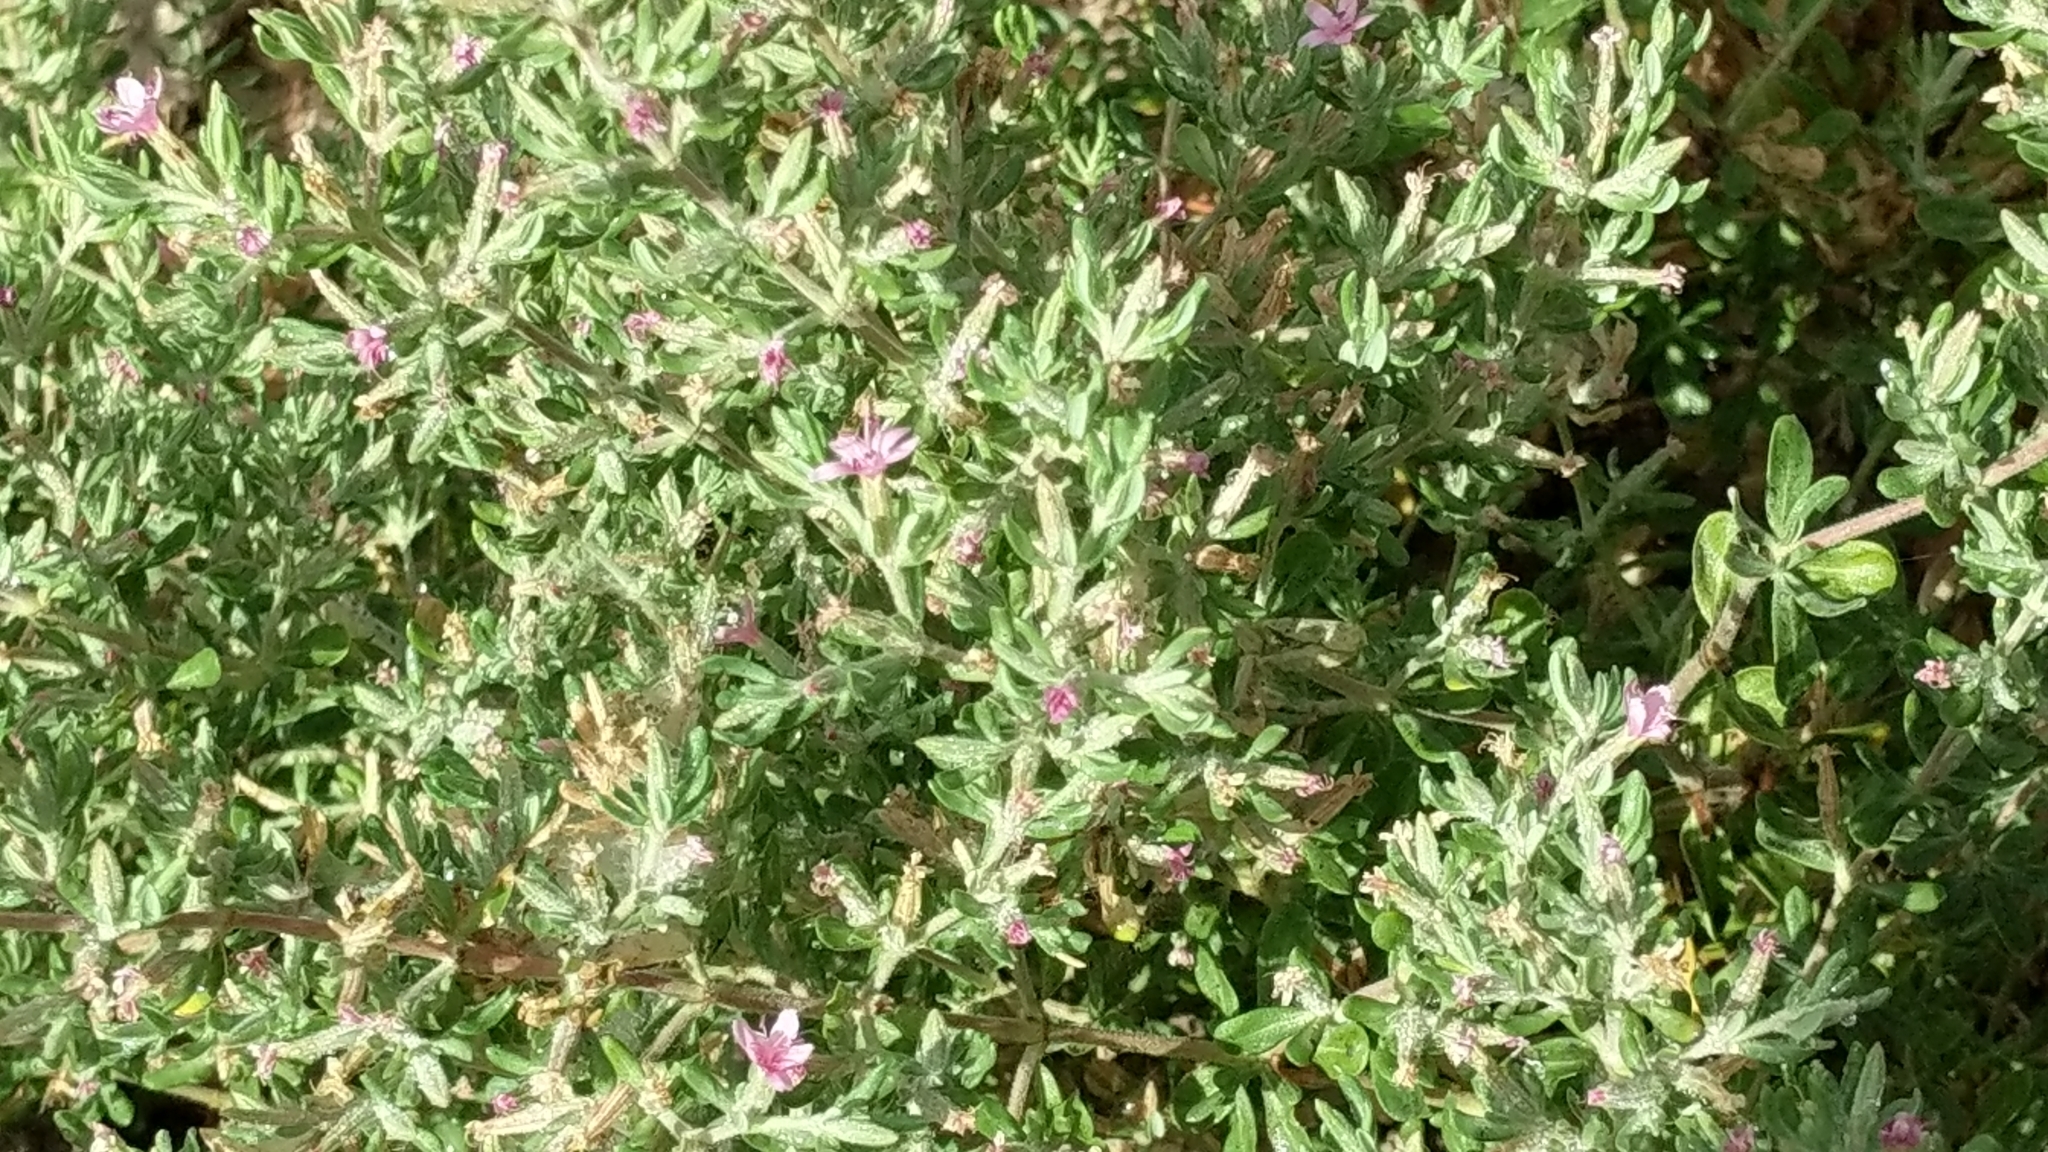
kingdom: Plantae
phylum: Tracheophyta
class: Magnoliopsida
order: Caryophyllales
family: Frankeniaceae
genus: Frankenia
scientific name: Frankenia salina
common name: Alkali seaheath
